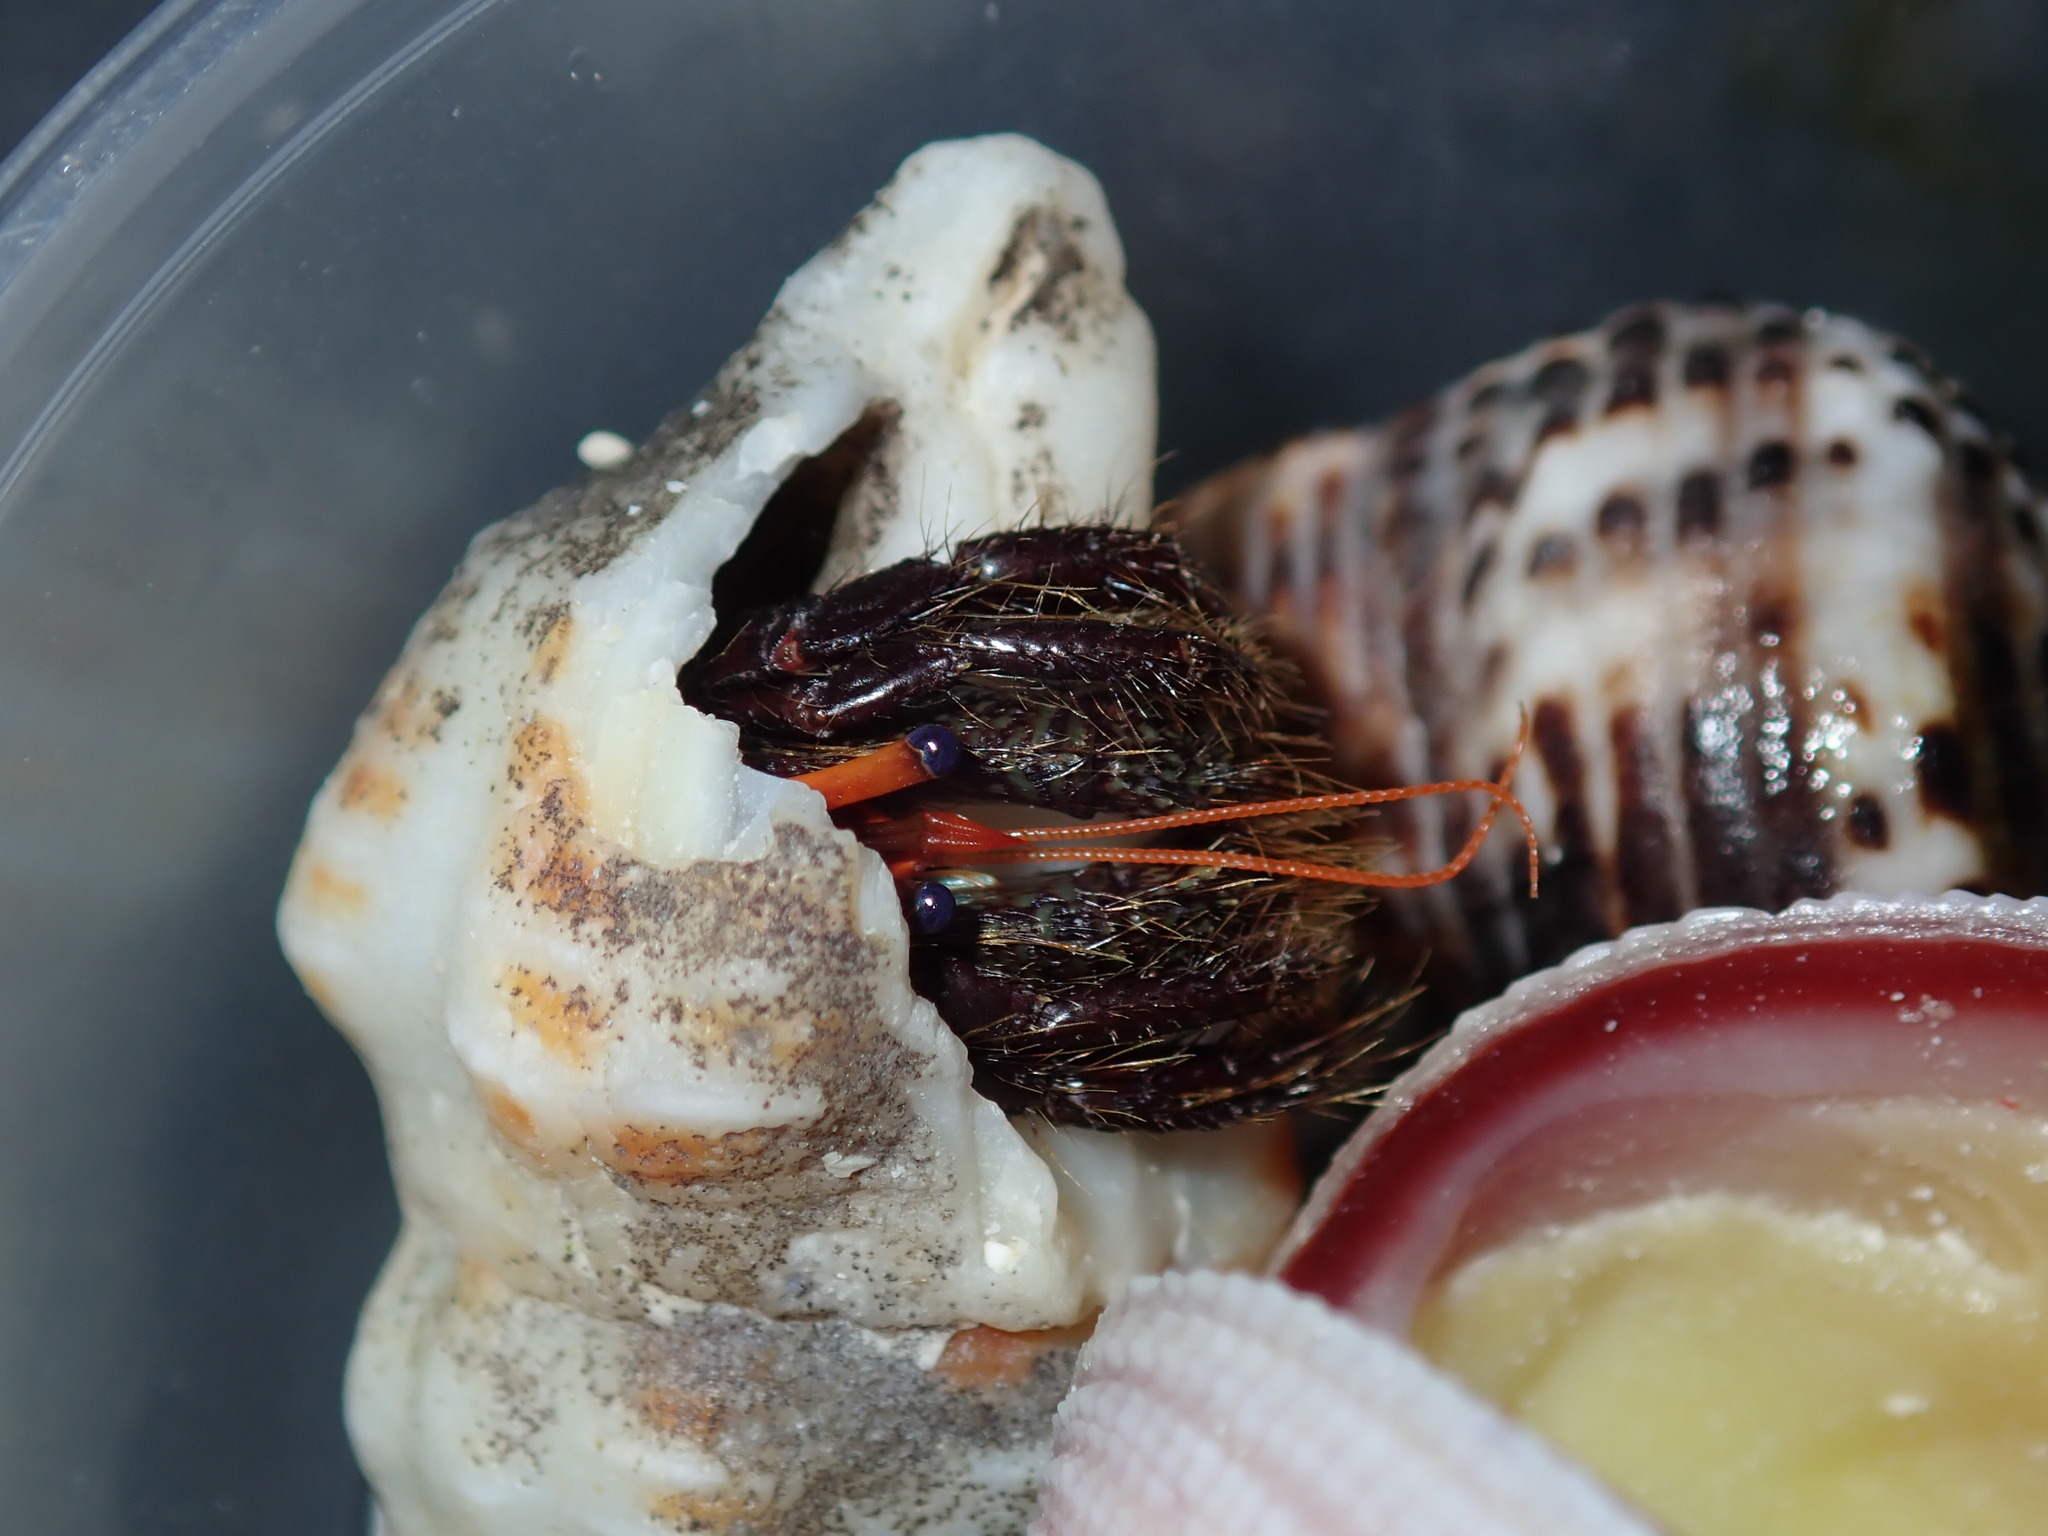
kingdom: Animalia
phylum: Arthropoda
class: Malacostraca
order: Decapoda
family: Diogenidae
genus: Clibanarius
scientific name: Clibanarius corallinus
